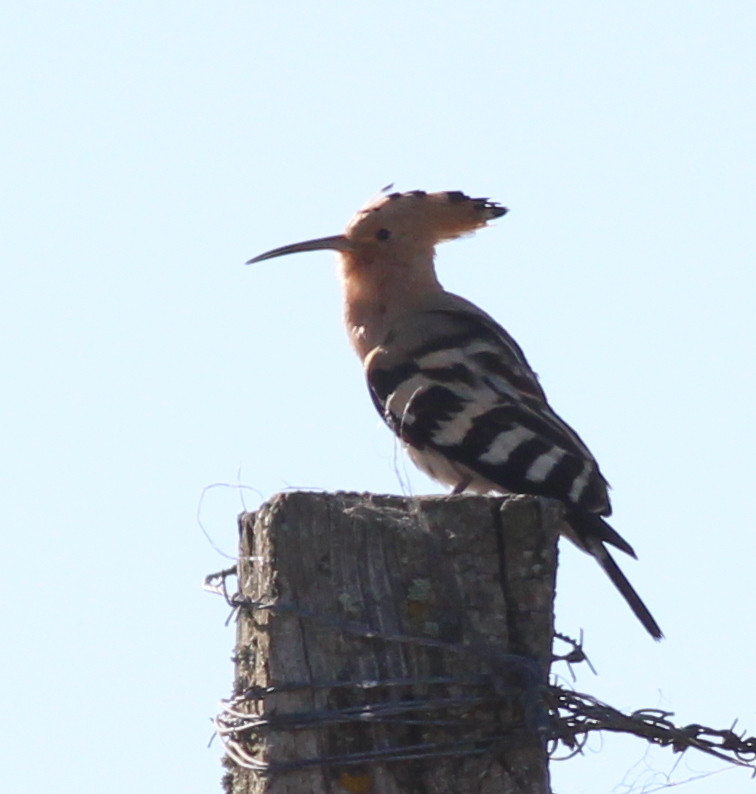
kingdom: Animalia
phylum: Chordata
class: Aves
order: Bucerotiformes
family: Upupidae
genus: Upupa
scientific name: Upupa epops
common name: Eurasian hoopoe
